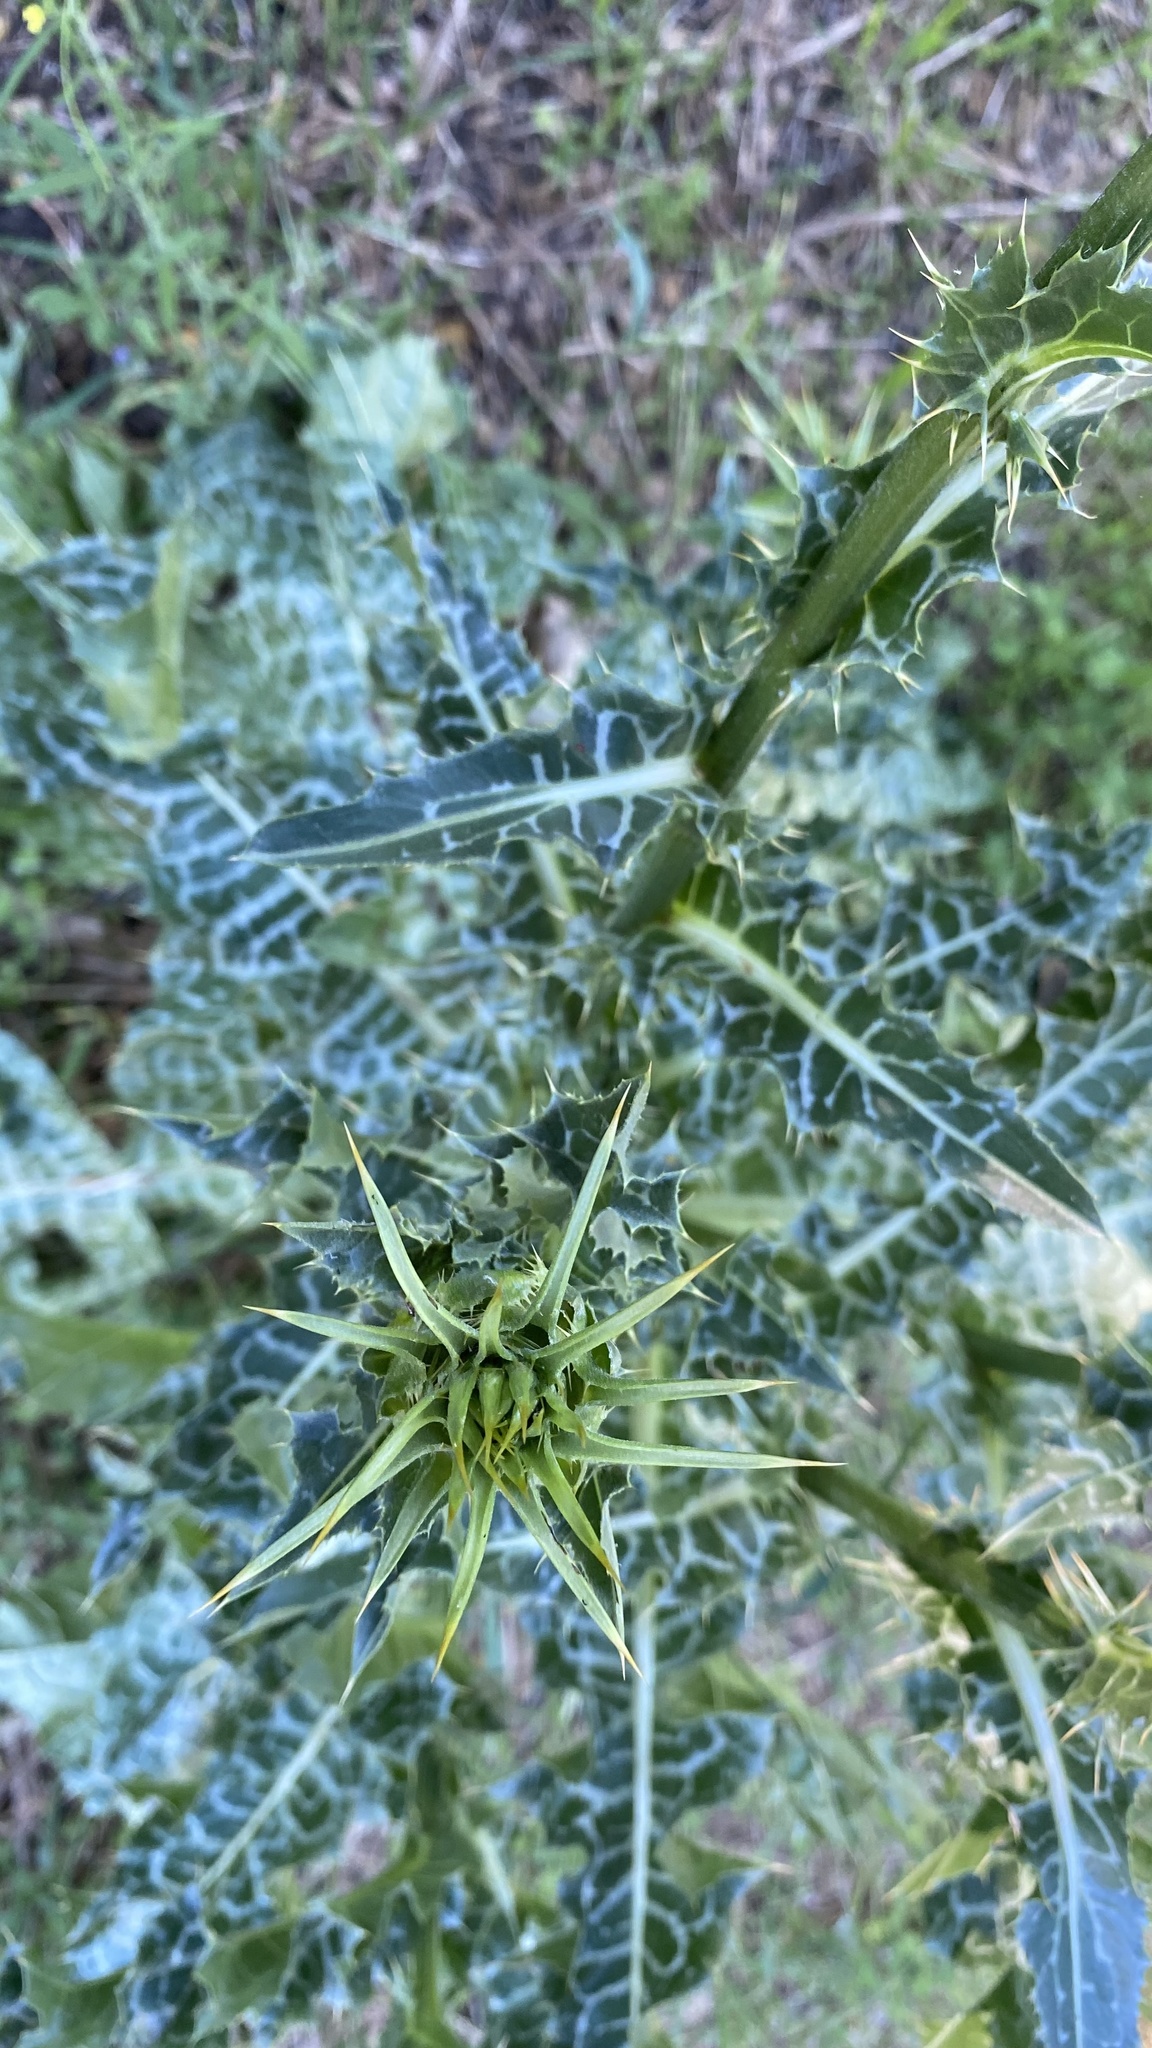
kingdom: Plantae
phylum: Tracheophyta
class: Magnoliopsida
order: Asterales
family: Asteraceae
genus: Silybum
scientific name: Silybum marianum
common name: Milk thistle
